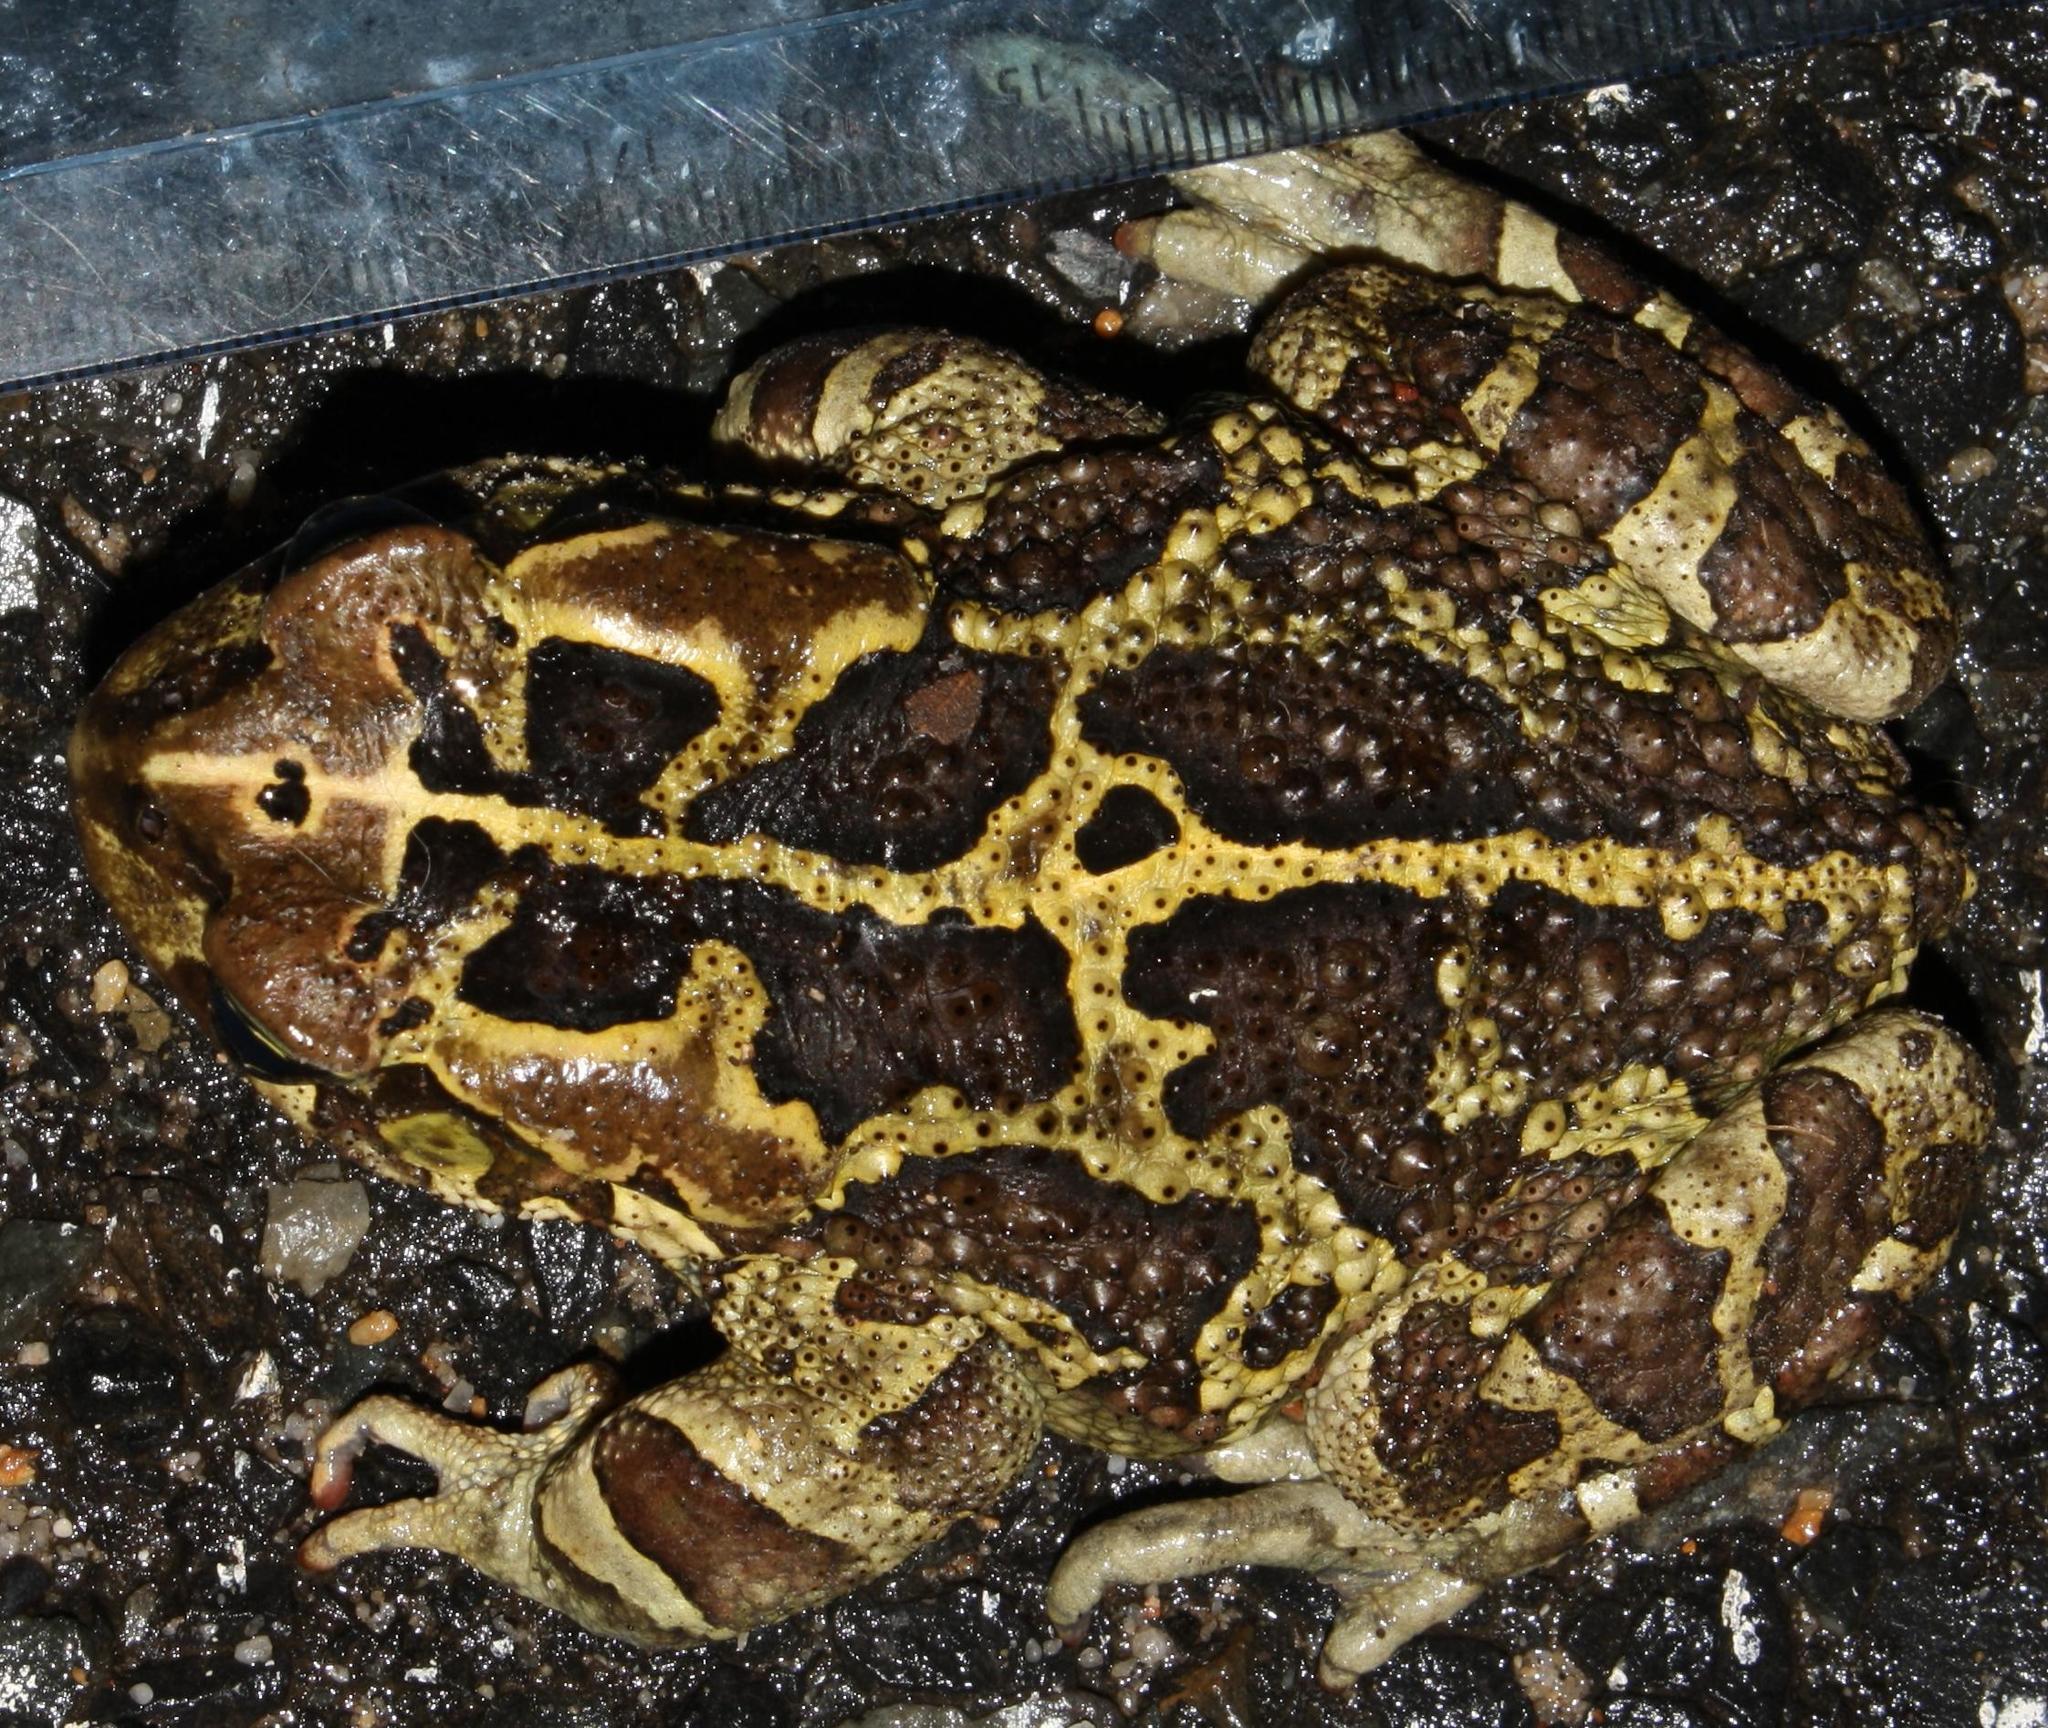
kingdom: Animalia
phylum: Chordata
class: Amphibia
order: Anura
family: Bufonidae
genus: Sclerophrys
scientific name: Sclerophrys pantherina
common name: Panther toad
